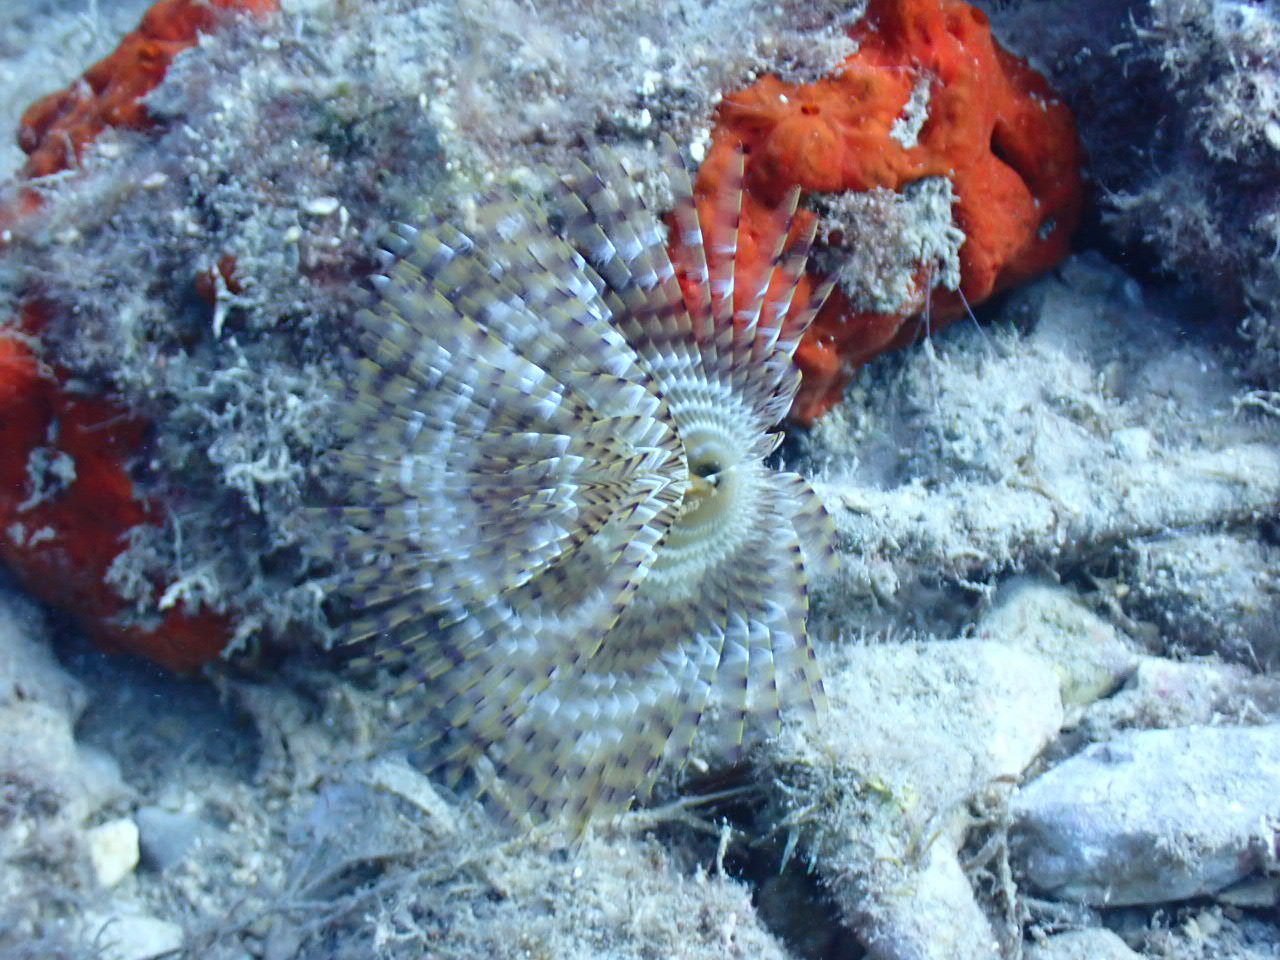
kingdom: Animalia
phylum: Annelida
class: Polychaeta
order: Sabellida
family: Sabellidae
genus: Sabella
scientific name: Sabella spallanzanii
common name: Feather duster worm
